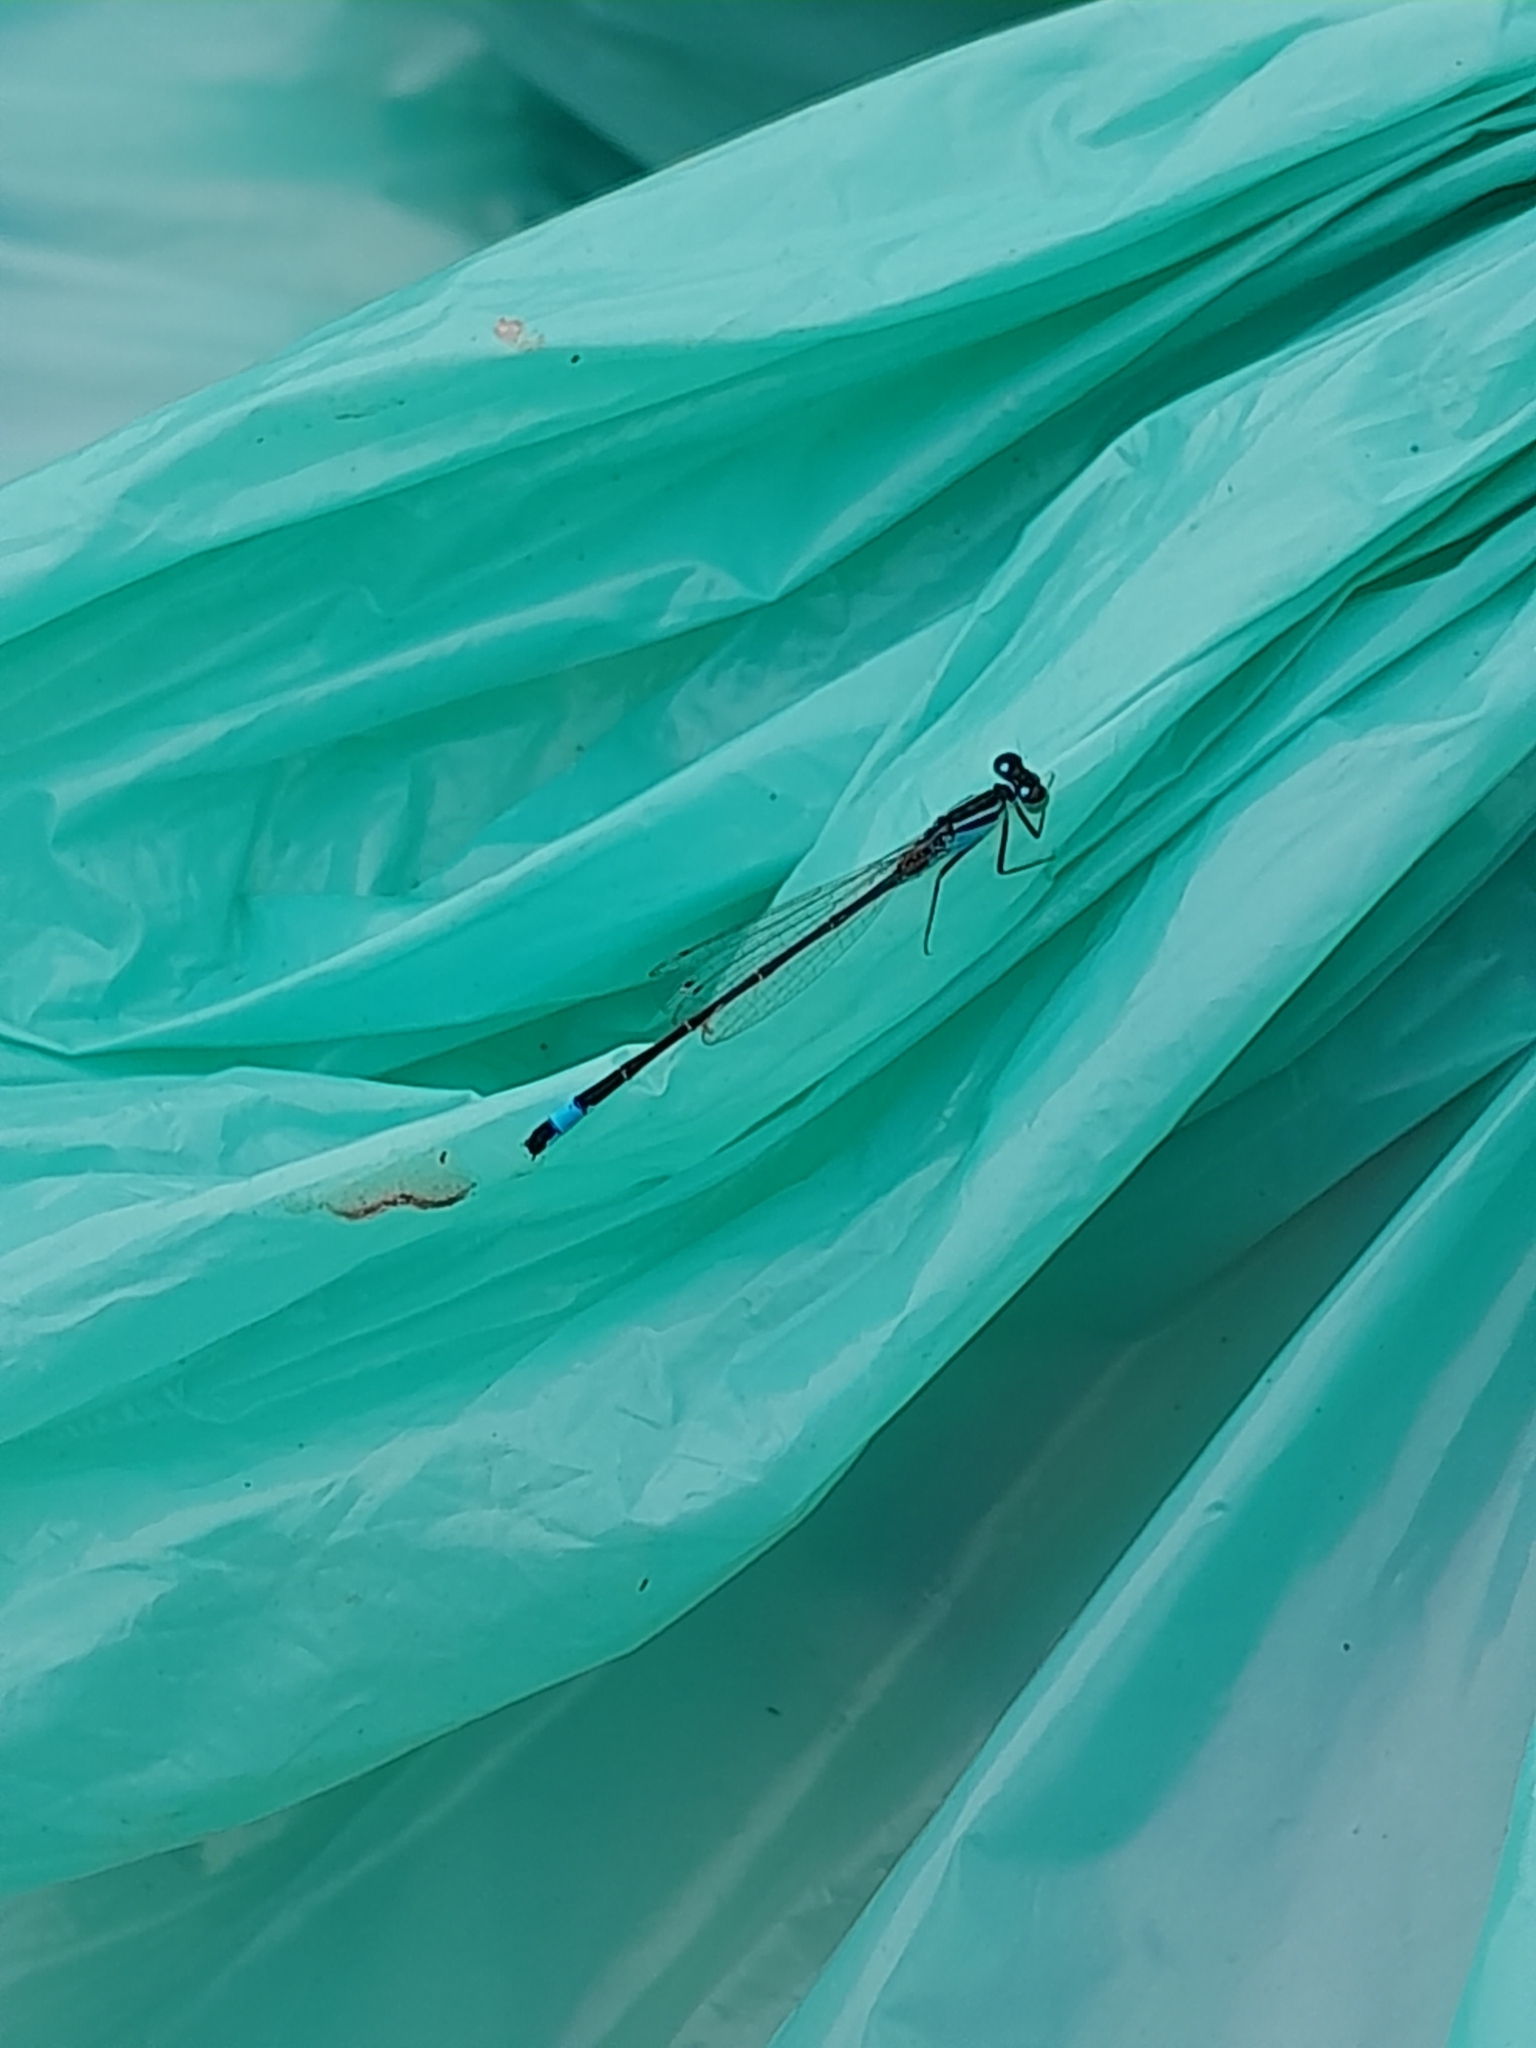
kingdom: Animalia
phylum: Arthropoda
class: Insecta
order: Odonata
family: Coenagrionidae
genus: Ischnura
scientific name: Ischnura elegans
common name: Blue-tailed damselfly
